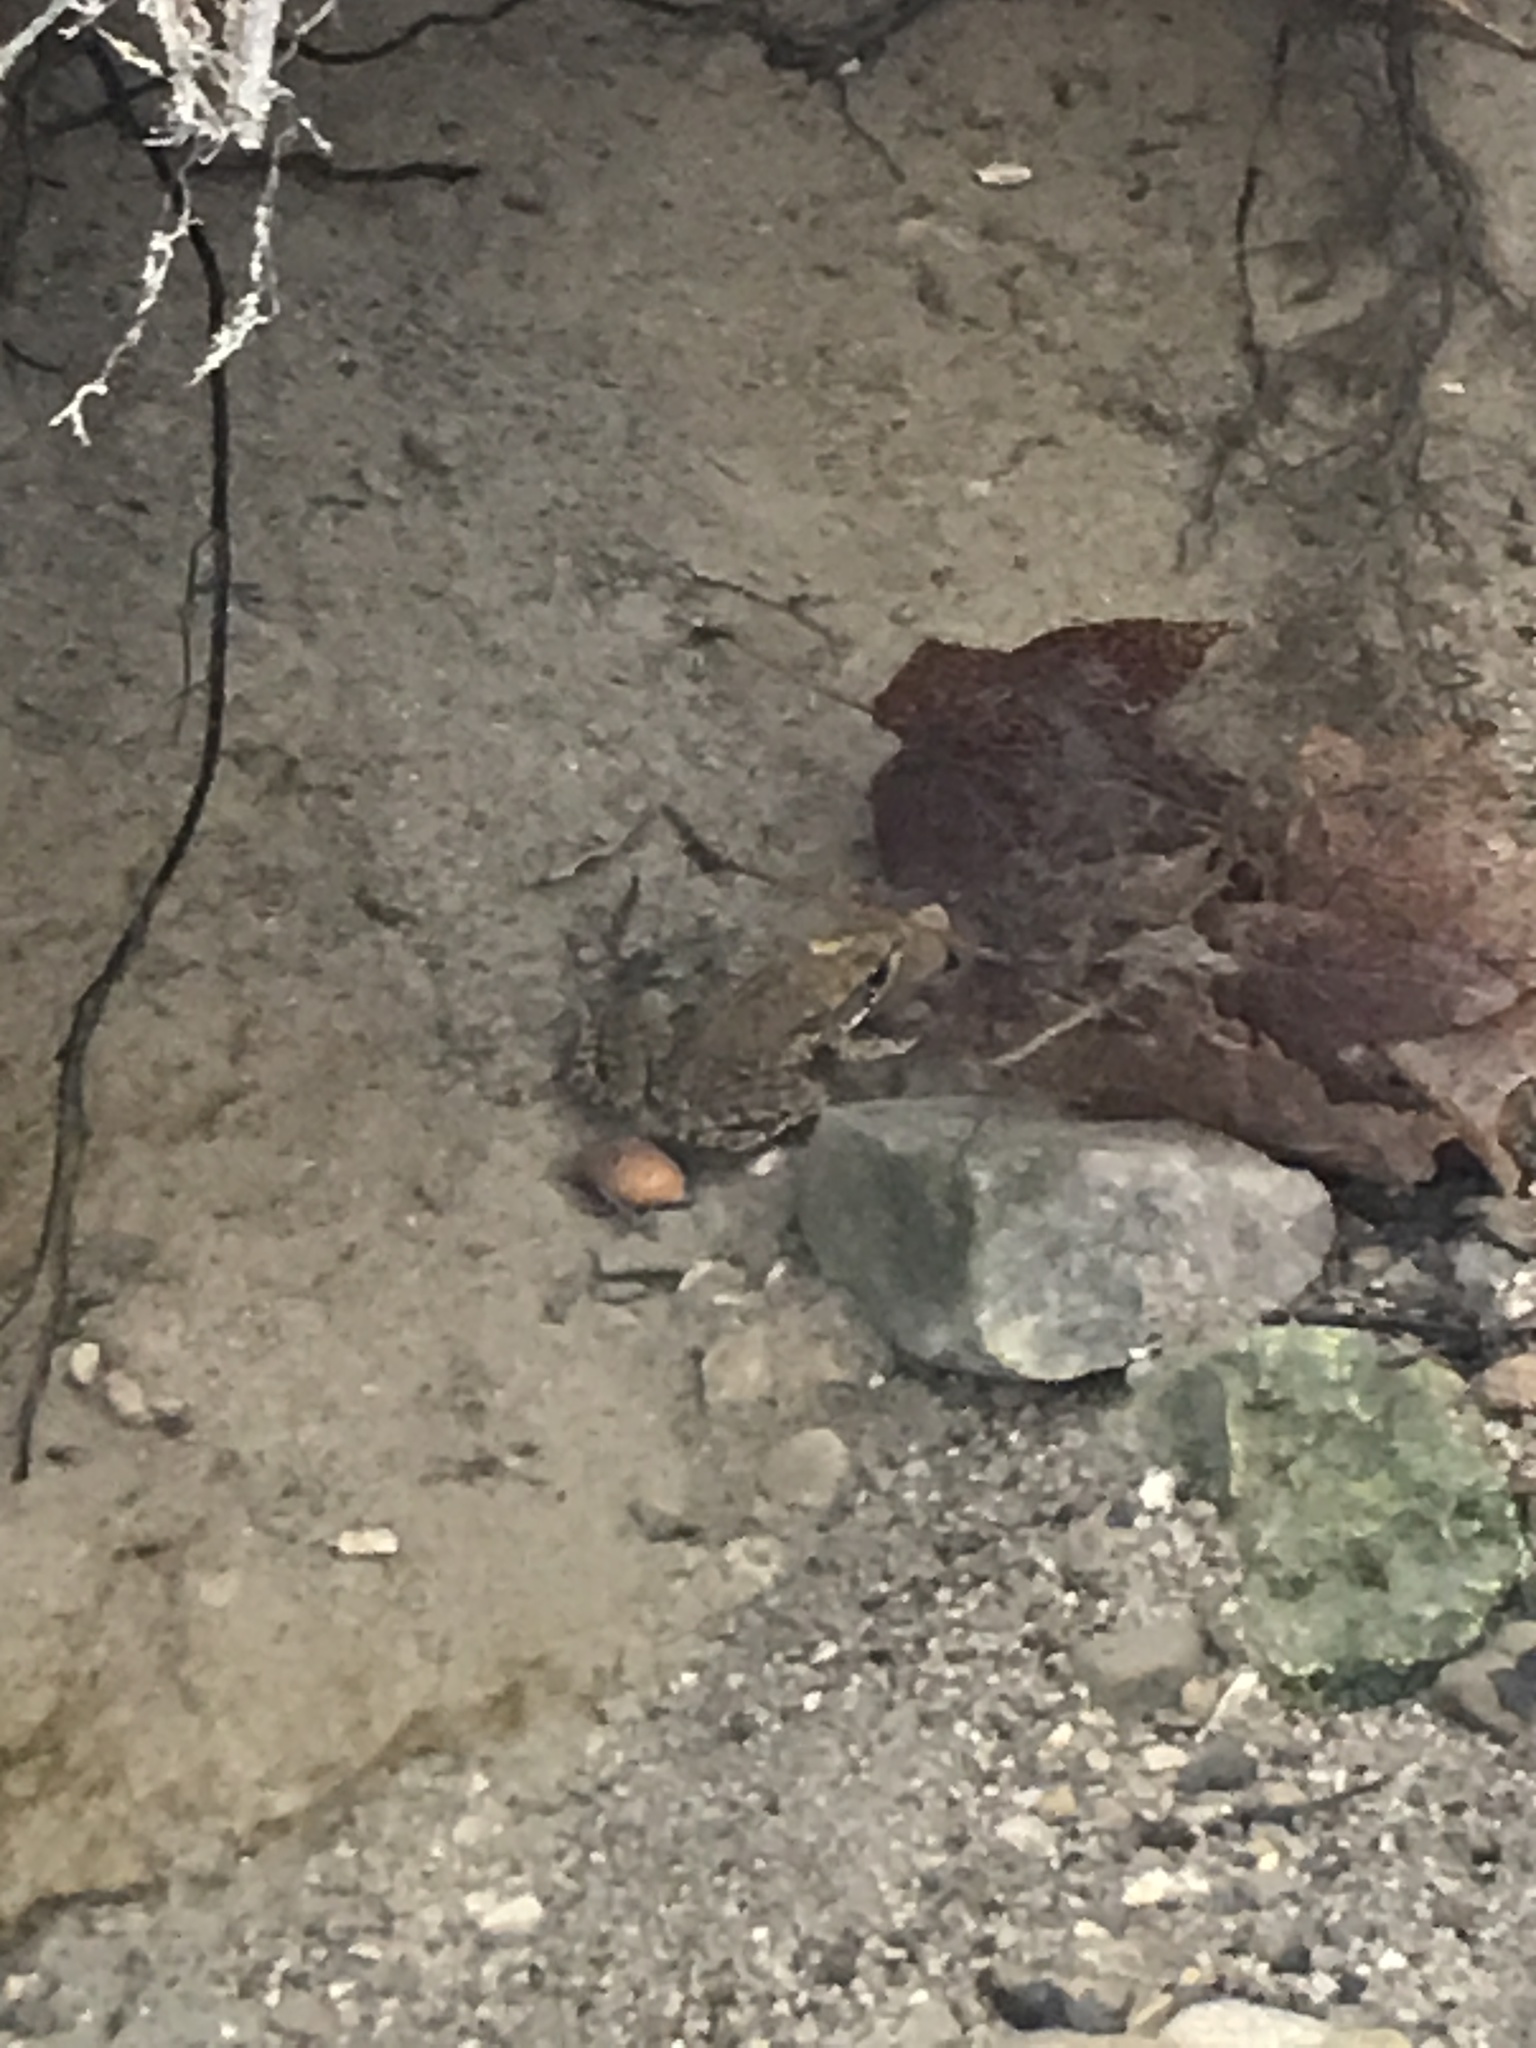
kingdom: Animalia
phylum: Chordata
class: Amphibia
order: Anura
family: Ranidae
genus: Lithobates
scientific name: Lithobates clamitans
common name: Green frog
